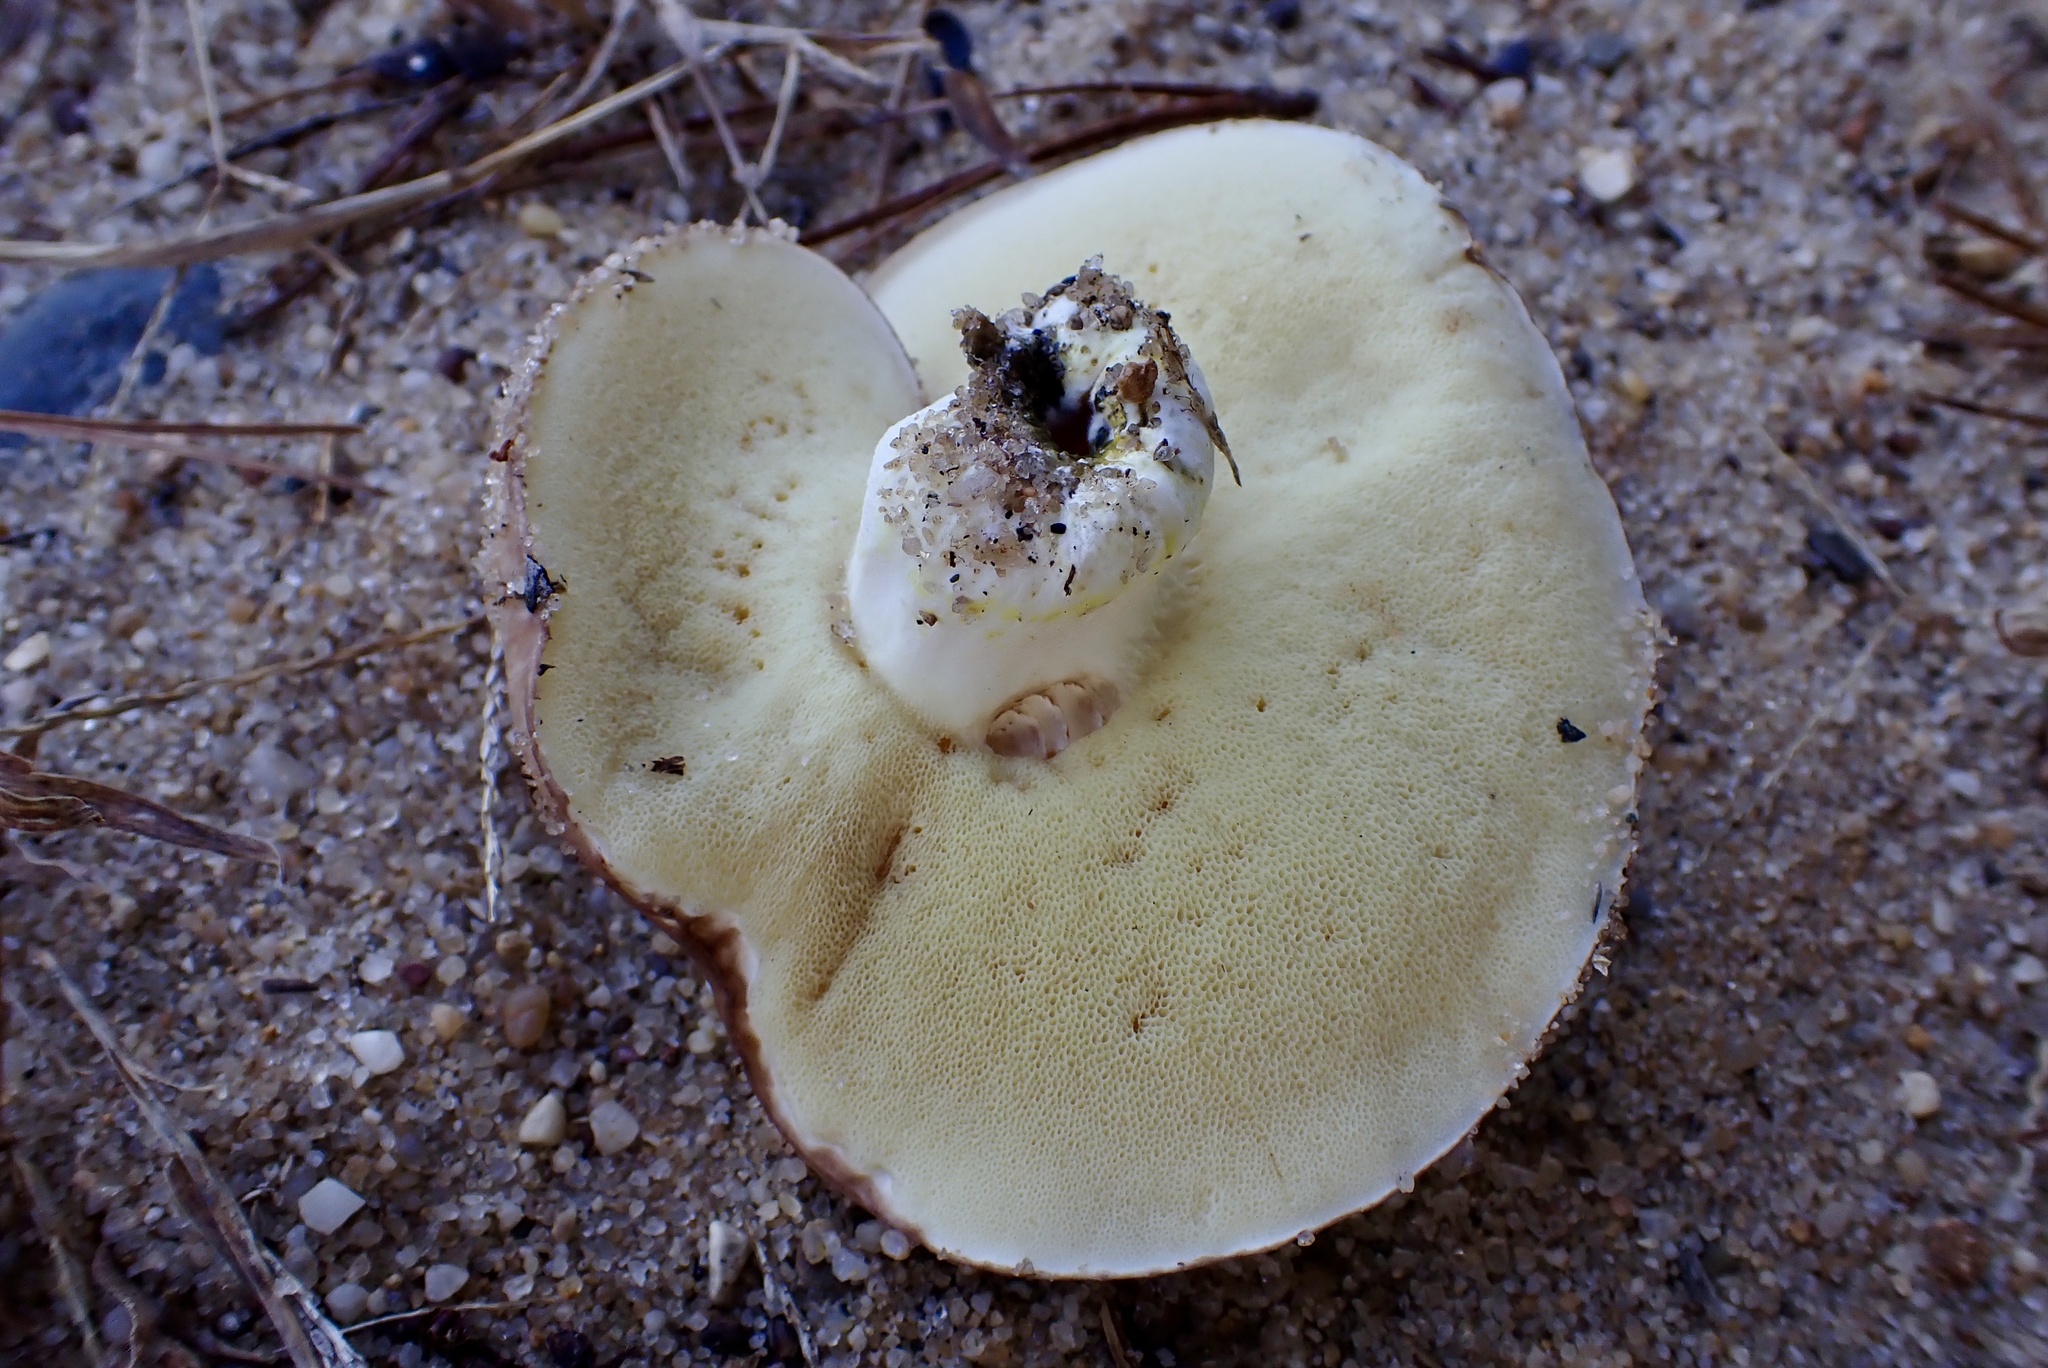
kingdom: Fungi
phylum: Basidiomycota
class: Agaricomycetes
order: Boletales
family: Suillaceae
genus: Suillus
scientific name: Suillus brevipes
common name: Short-stalked suillus
